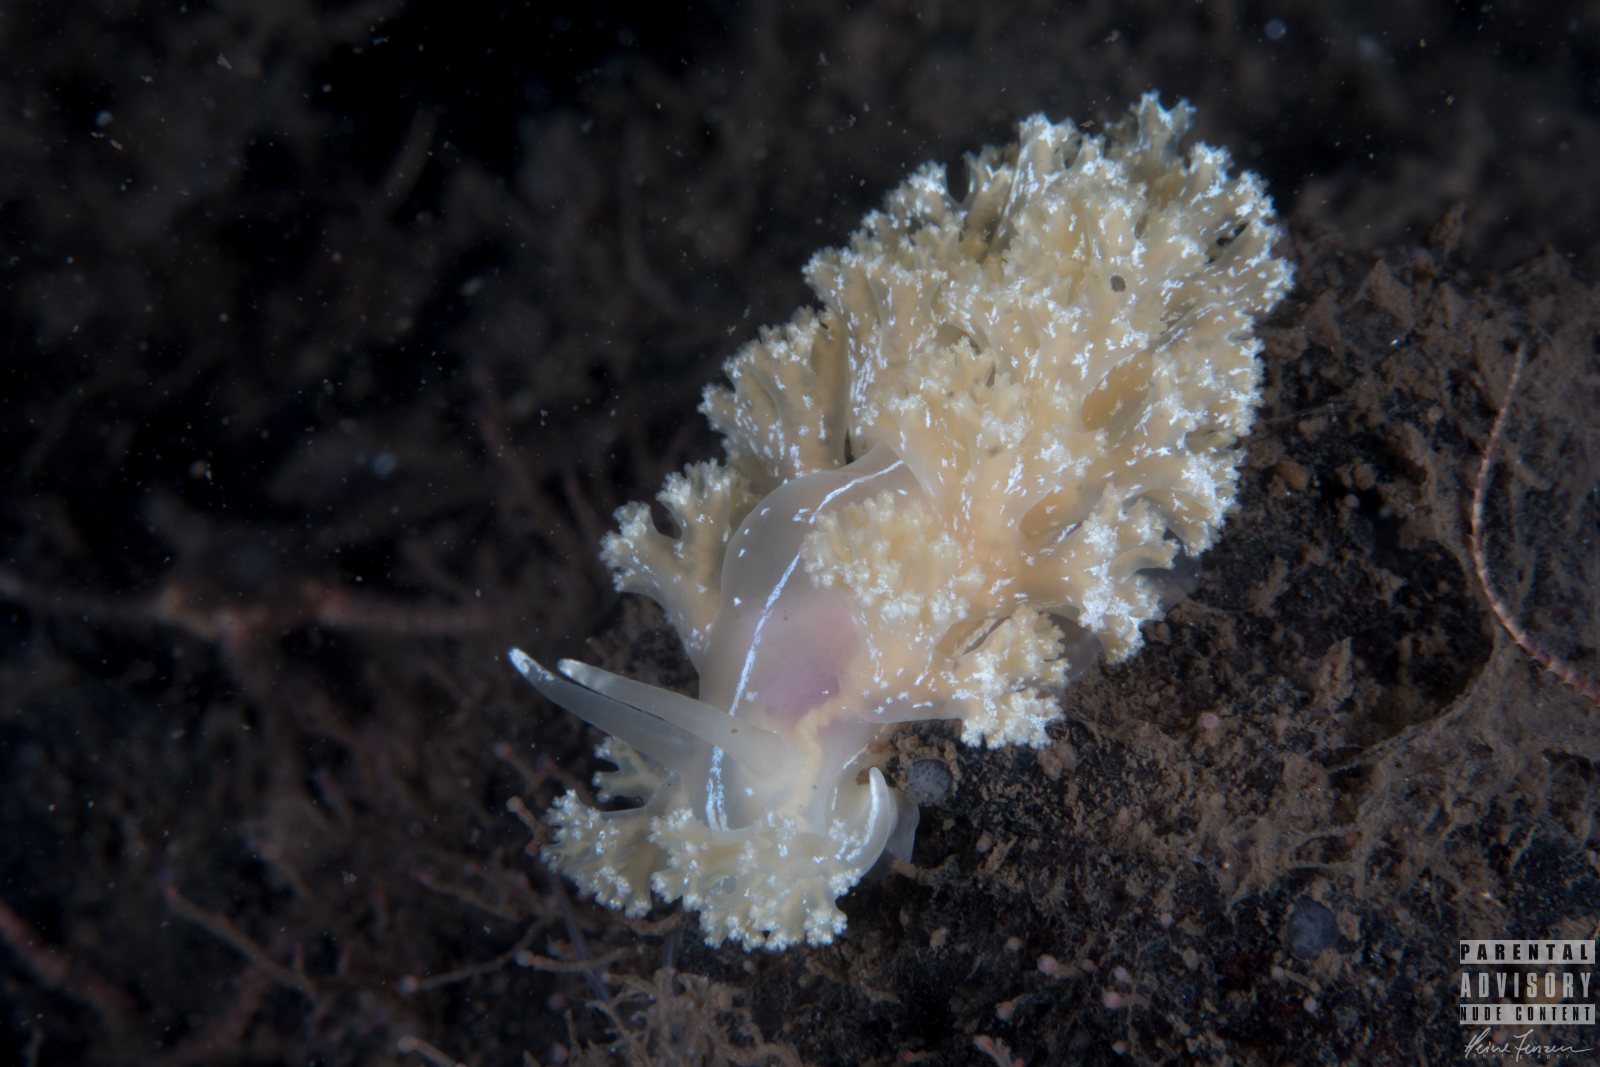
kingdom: Animalia
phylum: Mollusca
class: Gastropoda
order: Nudibranchia
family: Heroidae
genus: Hero
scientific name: Hero formosa
